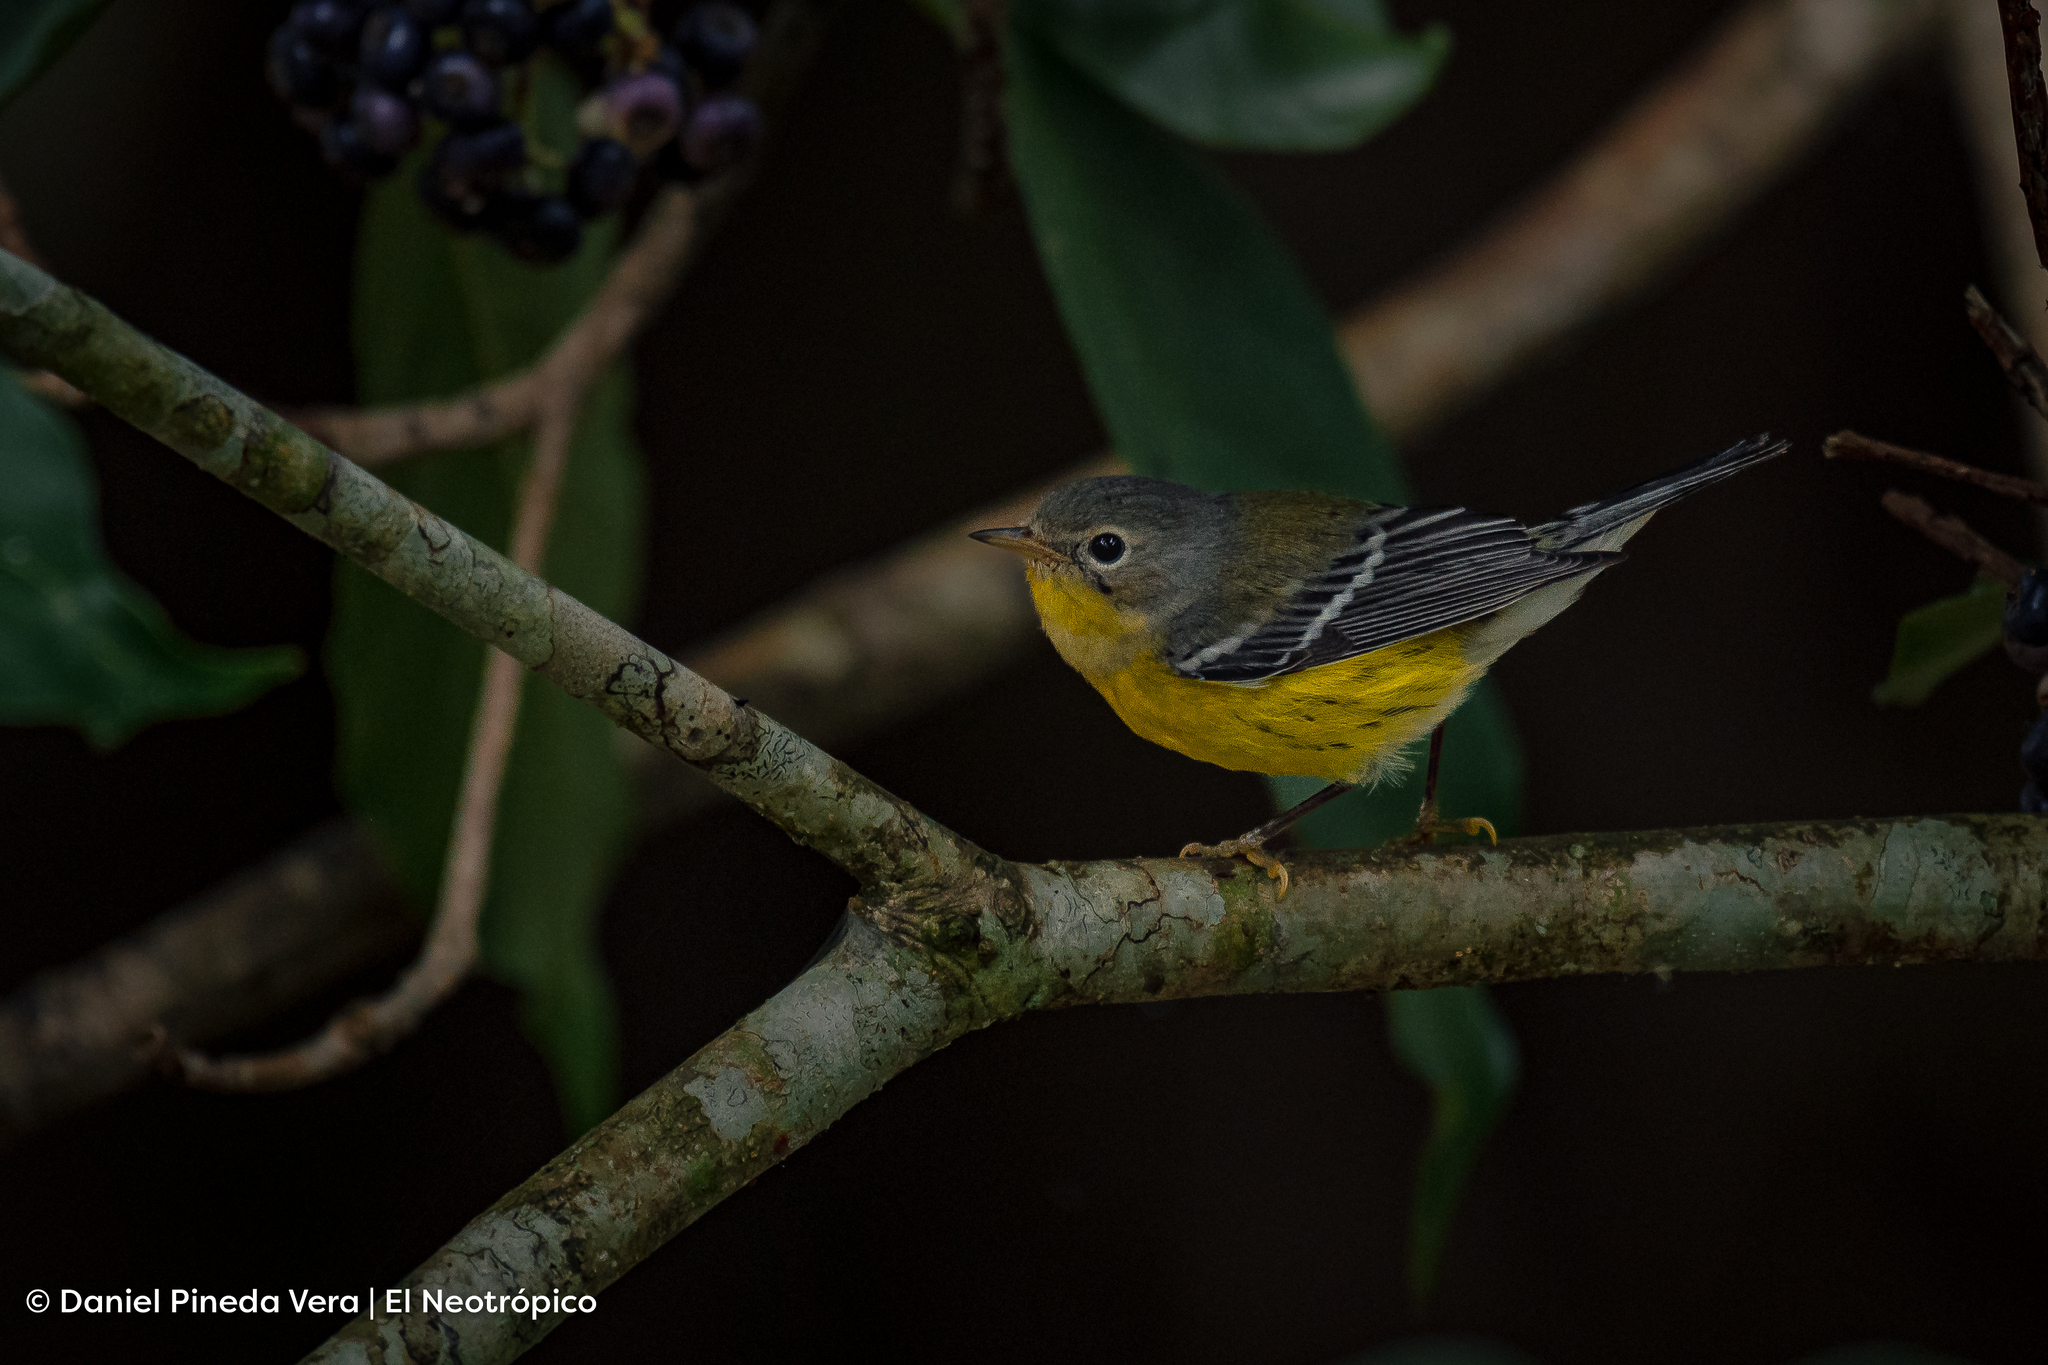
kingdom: Animalia
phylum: Chordata
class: Aves
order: Passeriformes
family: Parulidae
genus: Setophaga
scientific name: Setophaga magnolia
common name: Magnolia warbler
